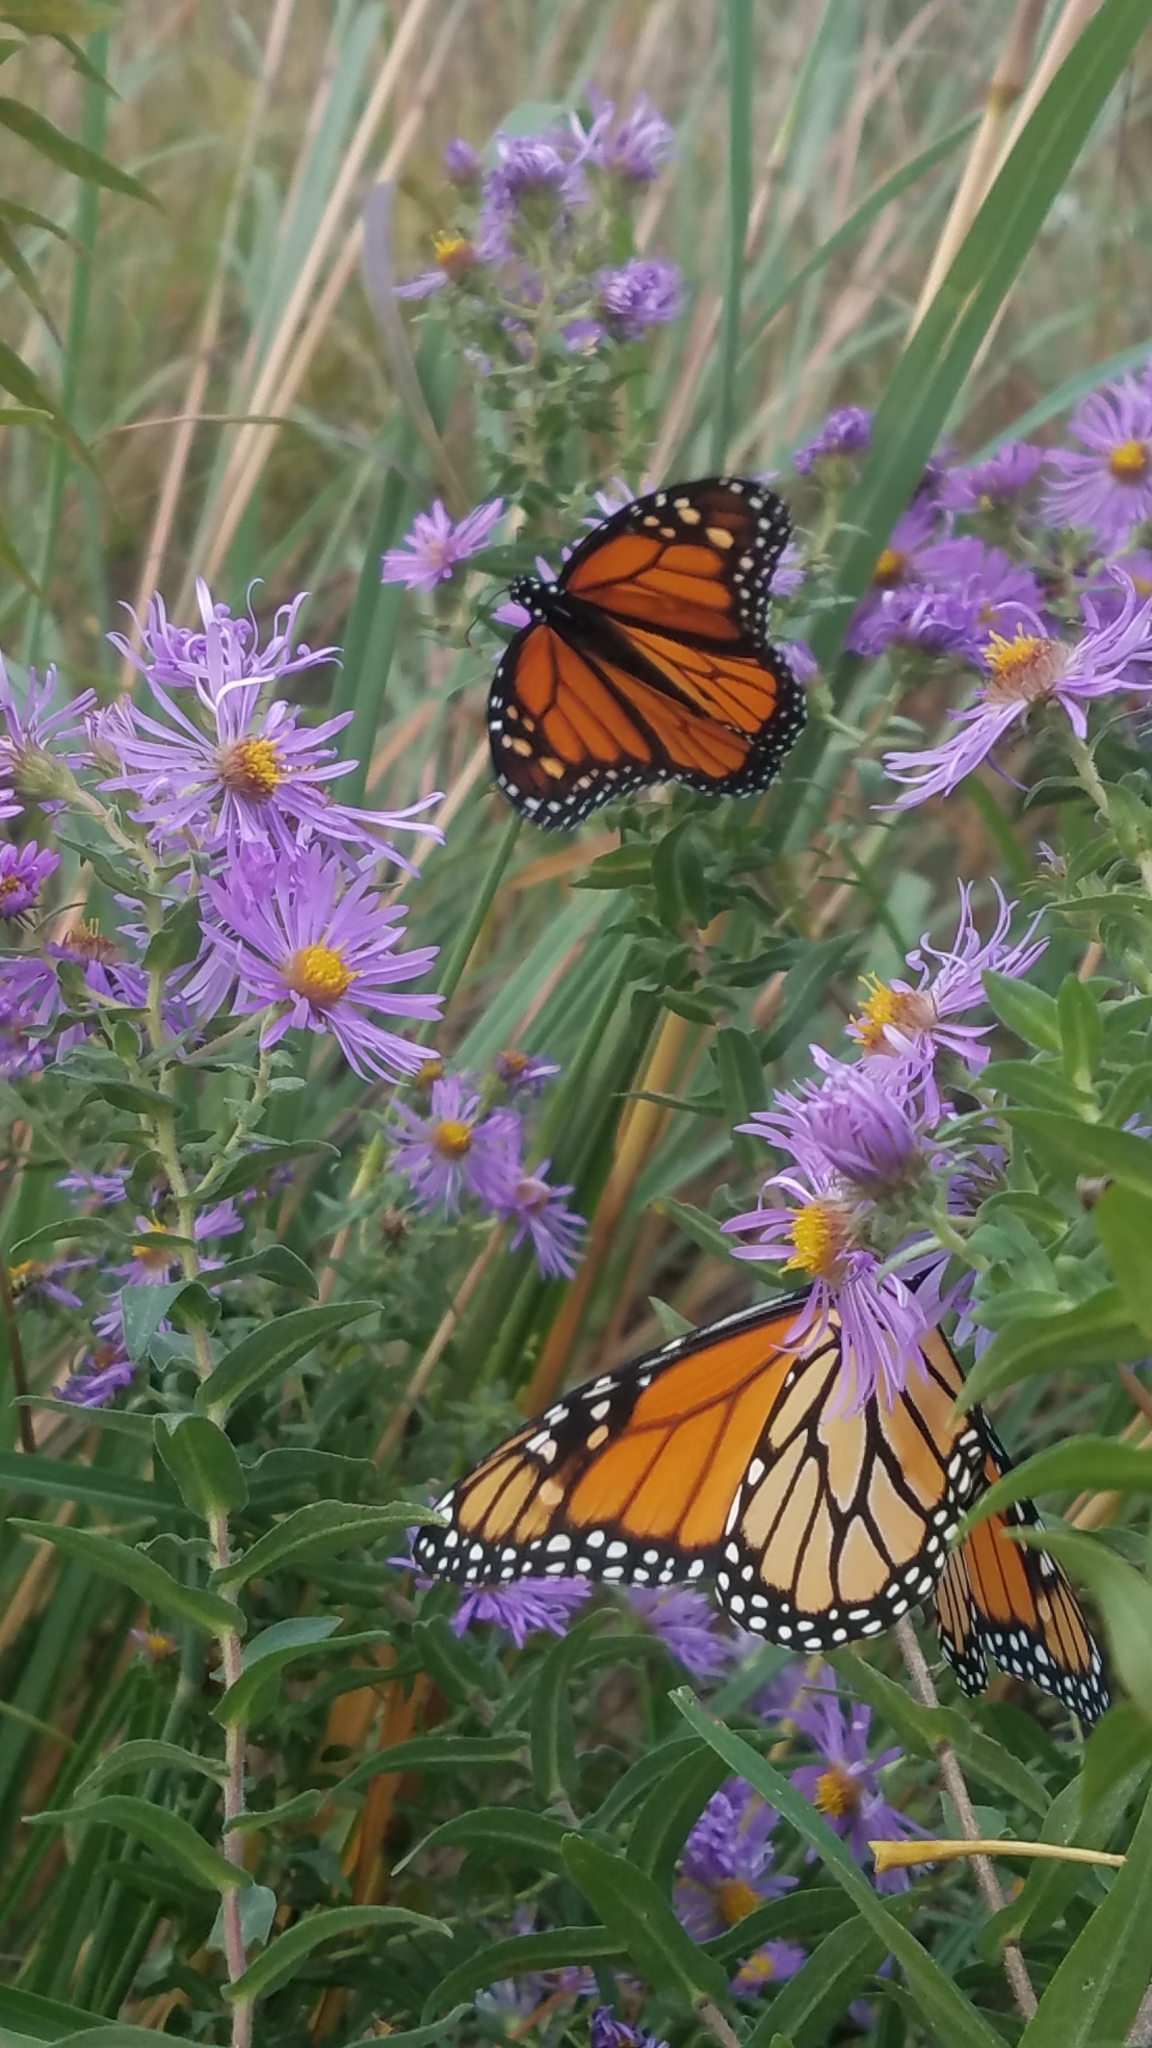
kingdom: Animalia
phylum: Arthropoda
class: Insecta
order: Lepidoptera
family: Nymphalidae
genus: Danaus
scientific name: Danaus plexippus
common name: Monarch
